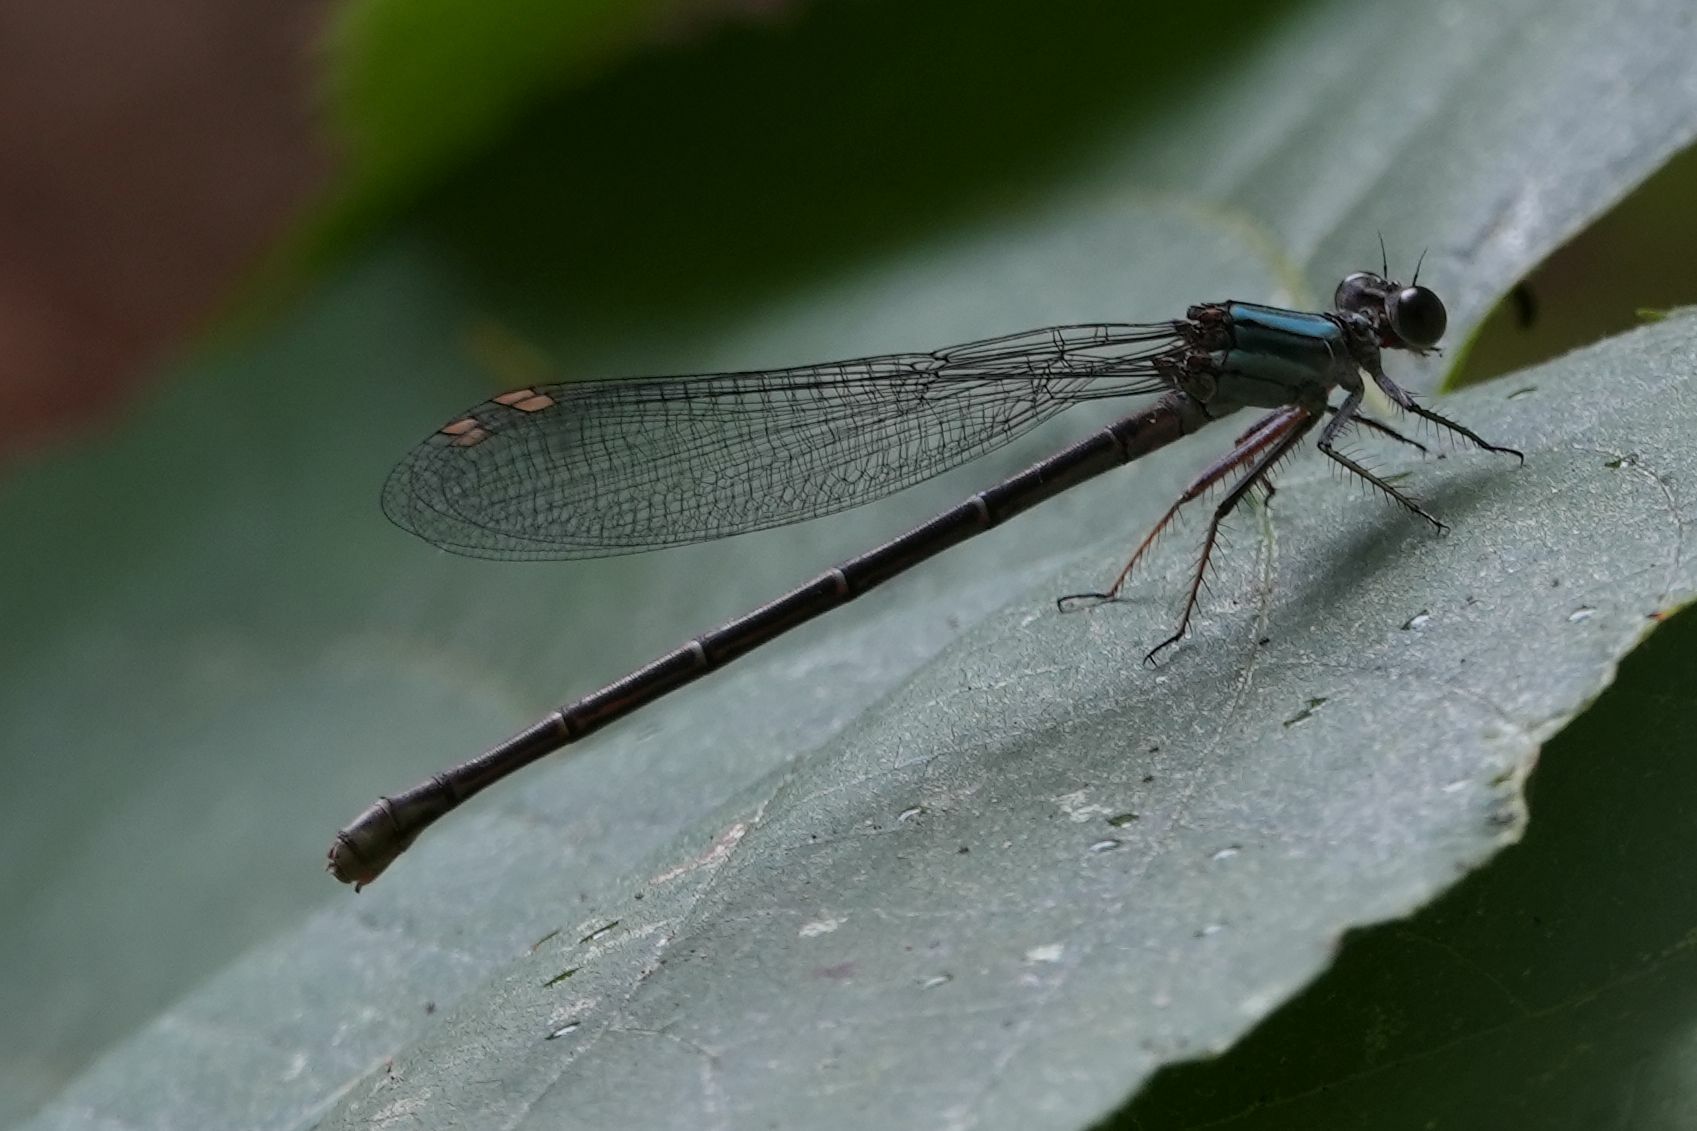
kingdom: Animalia
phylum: Arthropoda
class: Insecta
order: Odonata
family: Coenagrionidae
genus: Argia
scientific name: Argia moesta
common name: Powdered dancer
